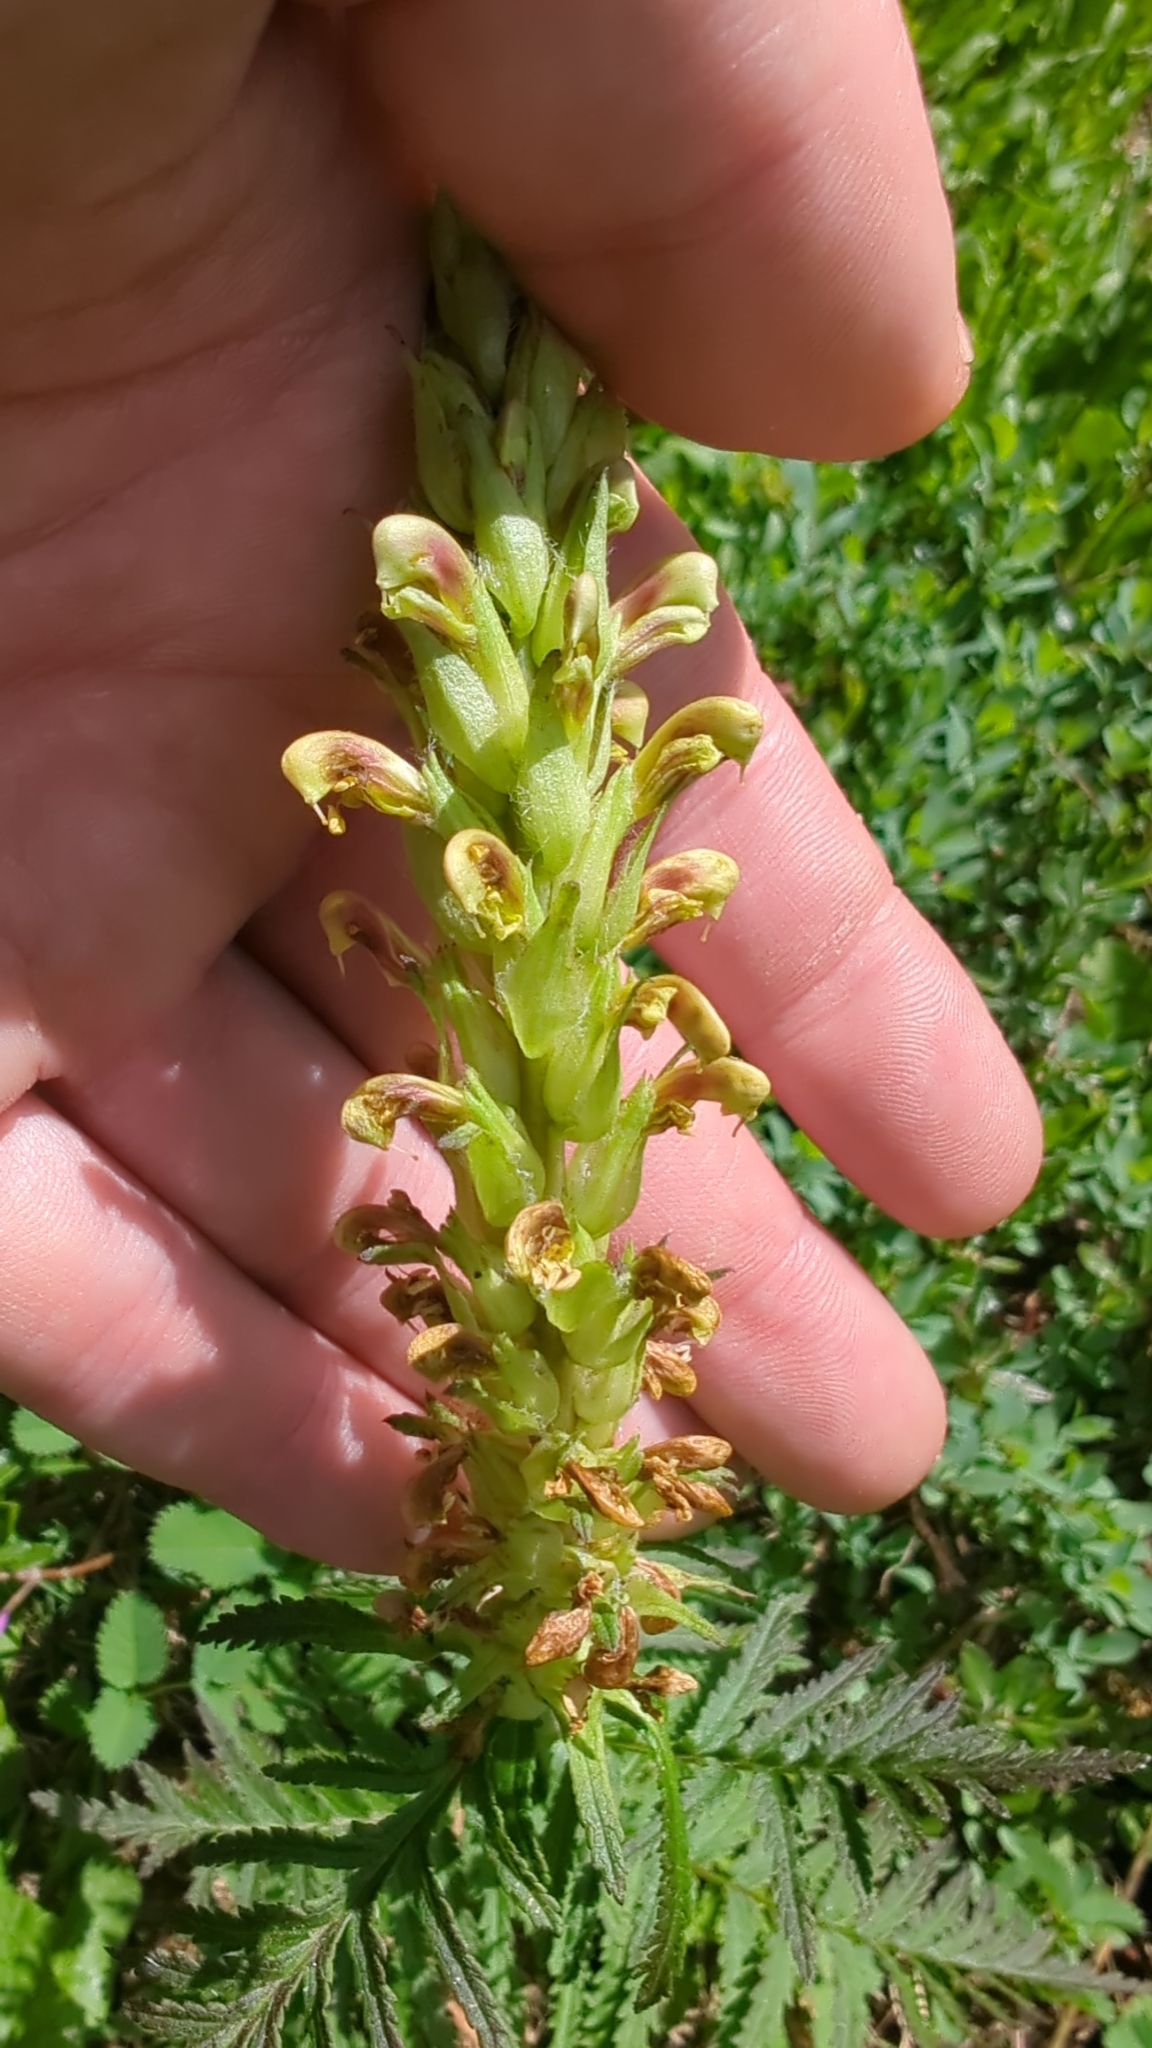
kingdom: Plantae
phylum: Tracheophyta
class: Magnoliopsida
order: Lamiales
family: Orobanchaceae
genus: Pedicularis
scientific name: Pedicularis bracteosa
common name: Bracted lousewort
